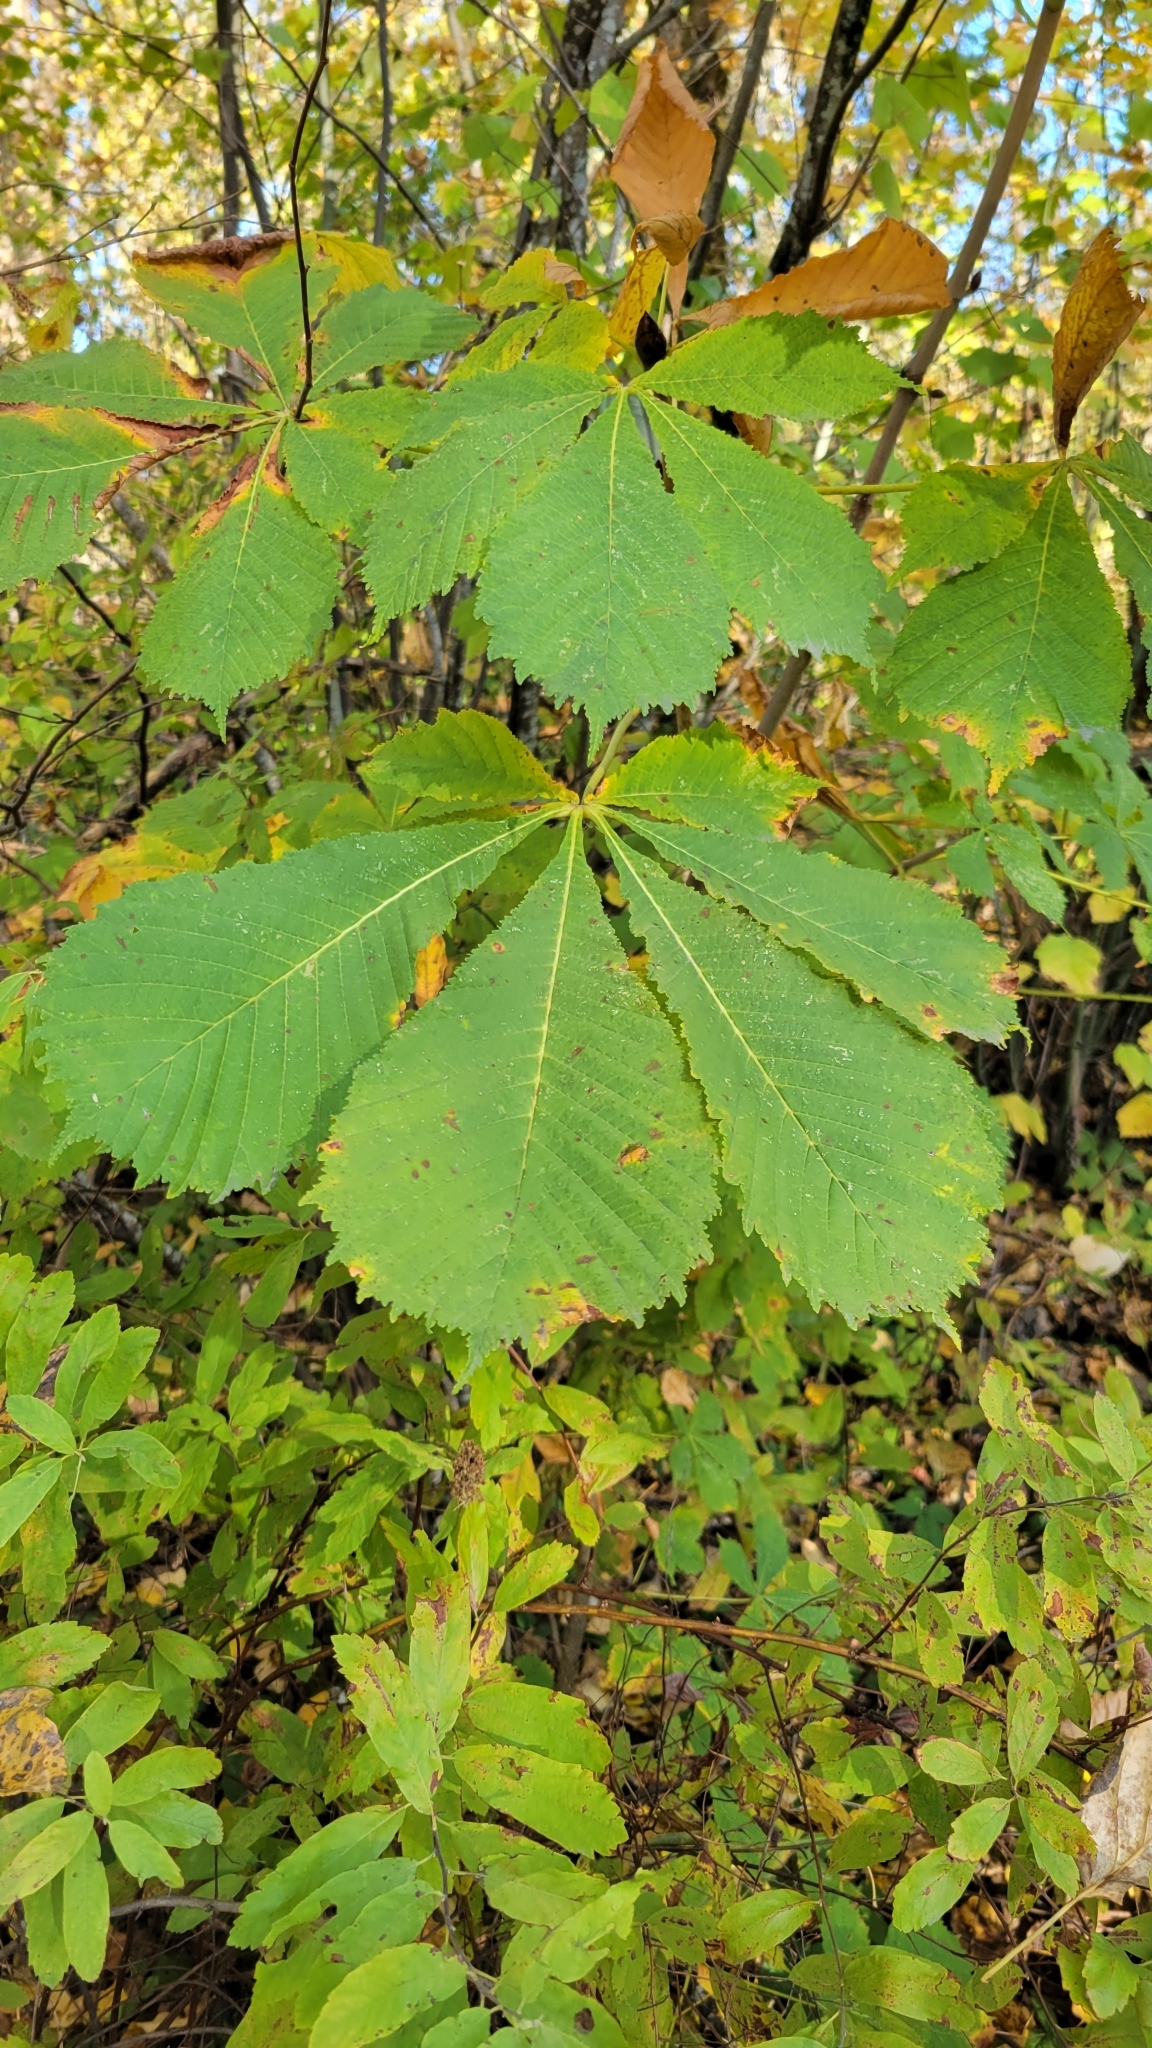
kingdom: Plantae
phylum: Tracheophyta
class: Magnoliopsida
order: Sapindales
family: Sapindaceae
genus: Aesculus
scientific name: Aesculus hippocastanum
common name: Horse-chestnut
